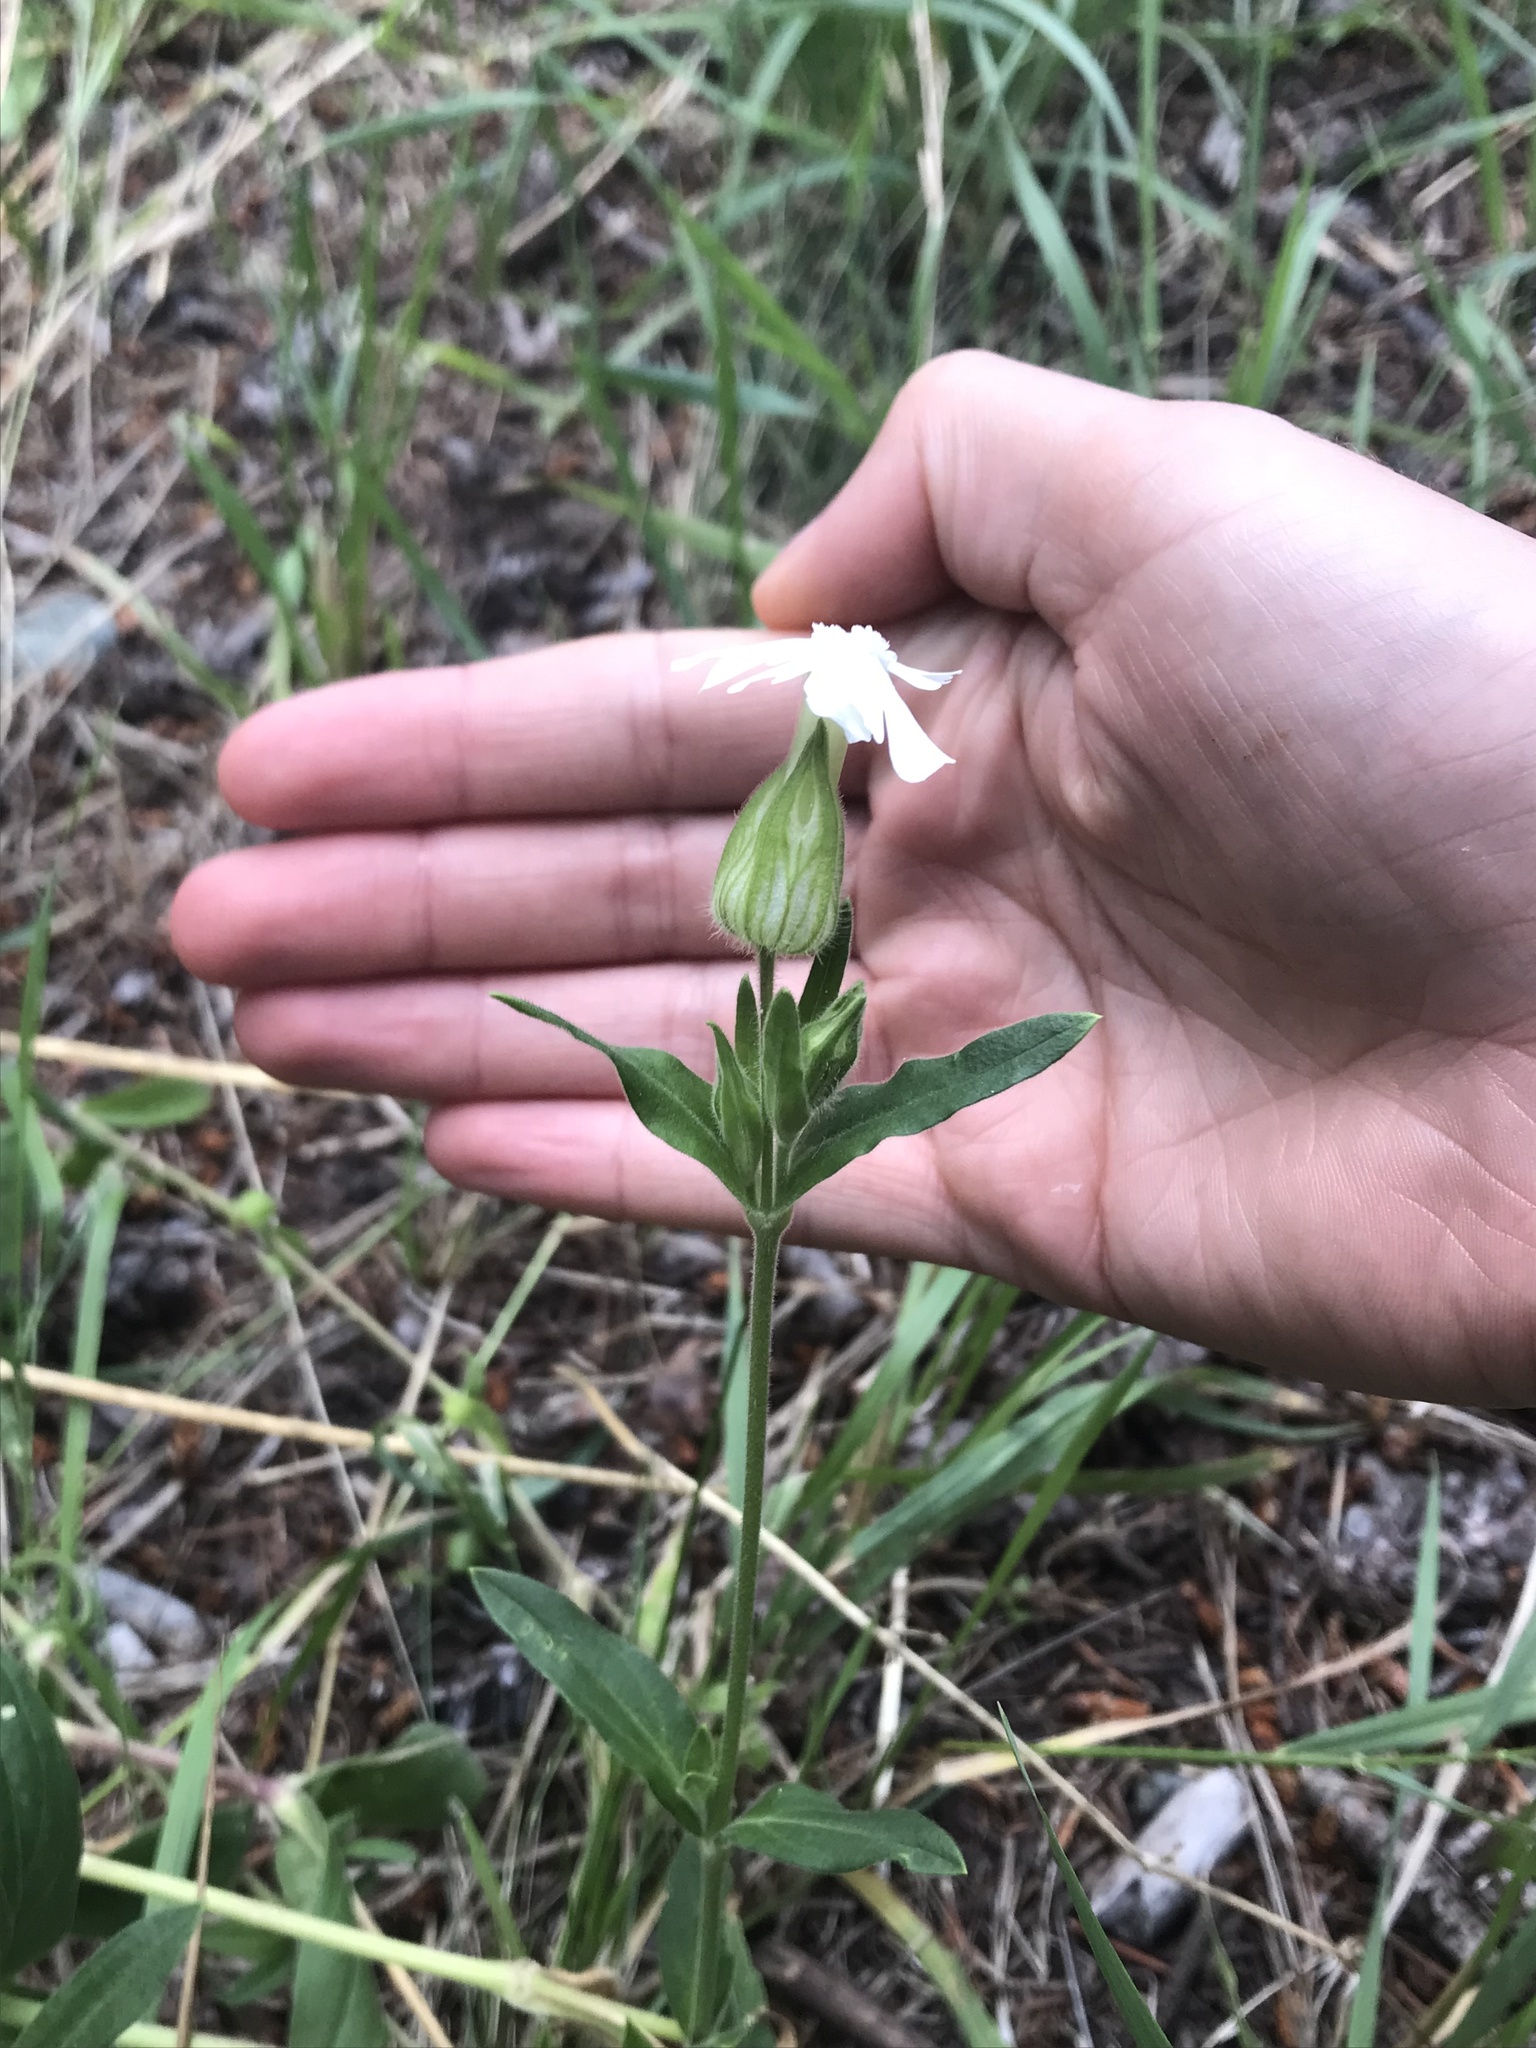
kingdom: Plantae
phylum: Tracheophyta
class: Magnoliopsida
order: Caryophyllales
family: Caryophyllaceae
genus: Silene
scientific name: Silene latifolia
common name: White campion
